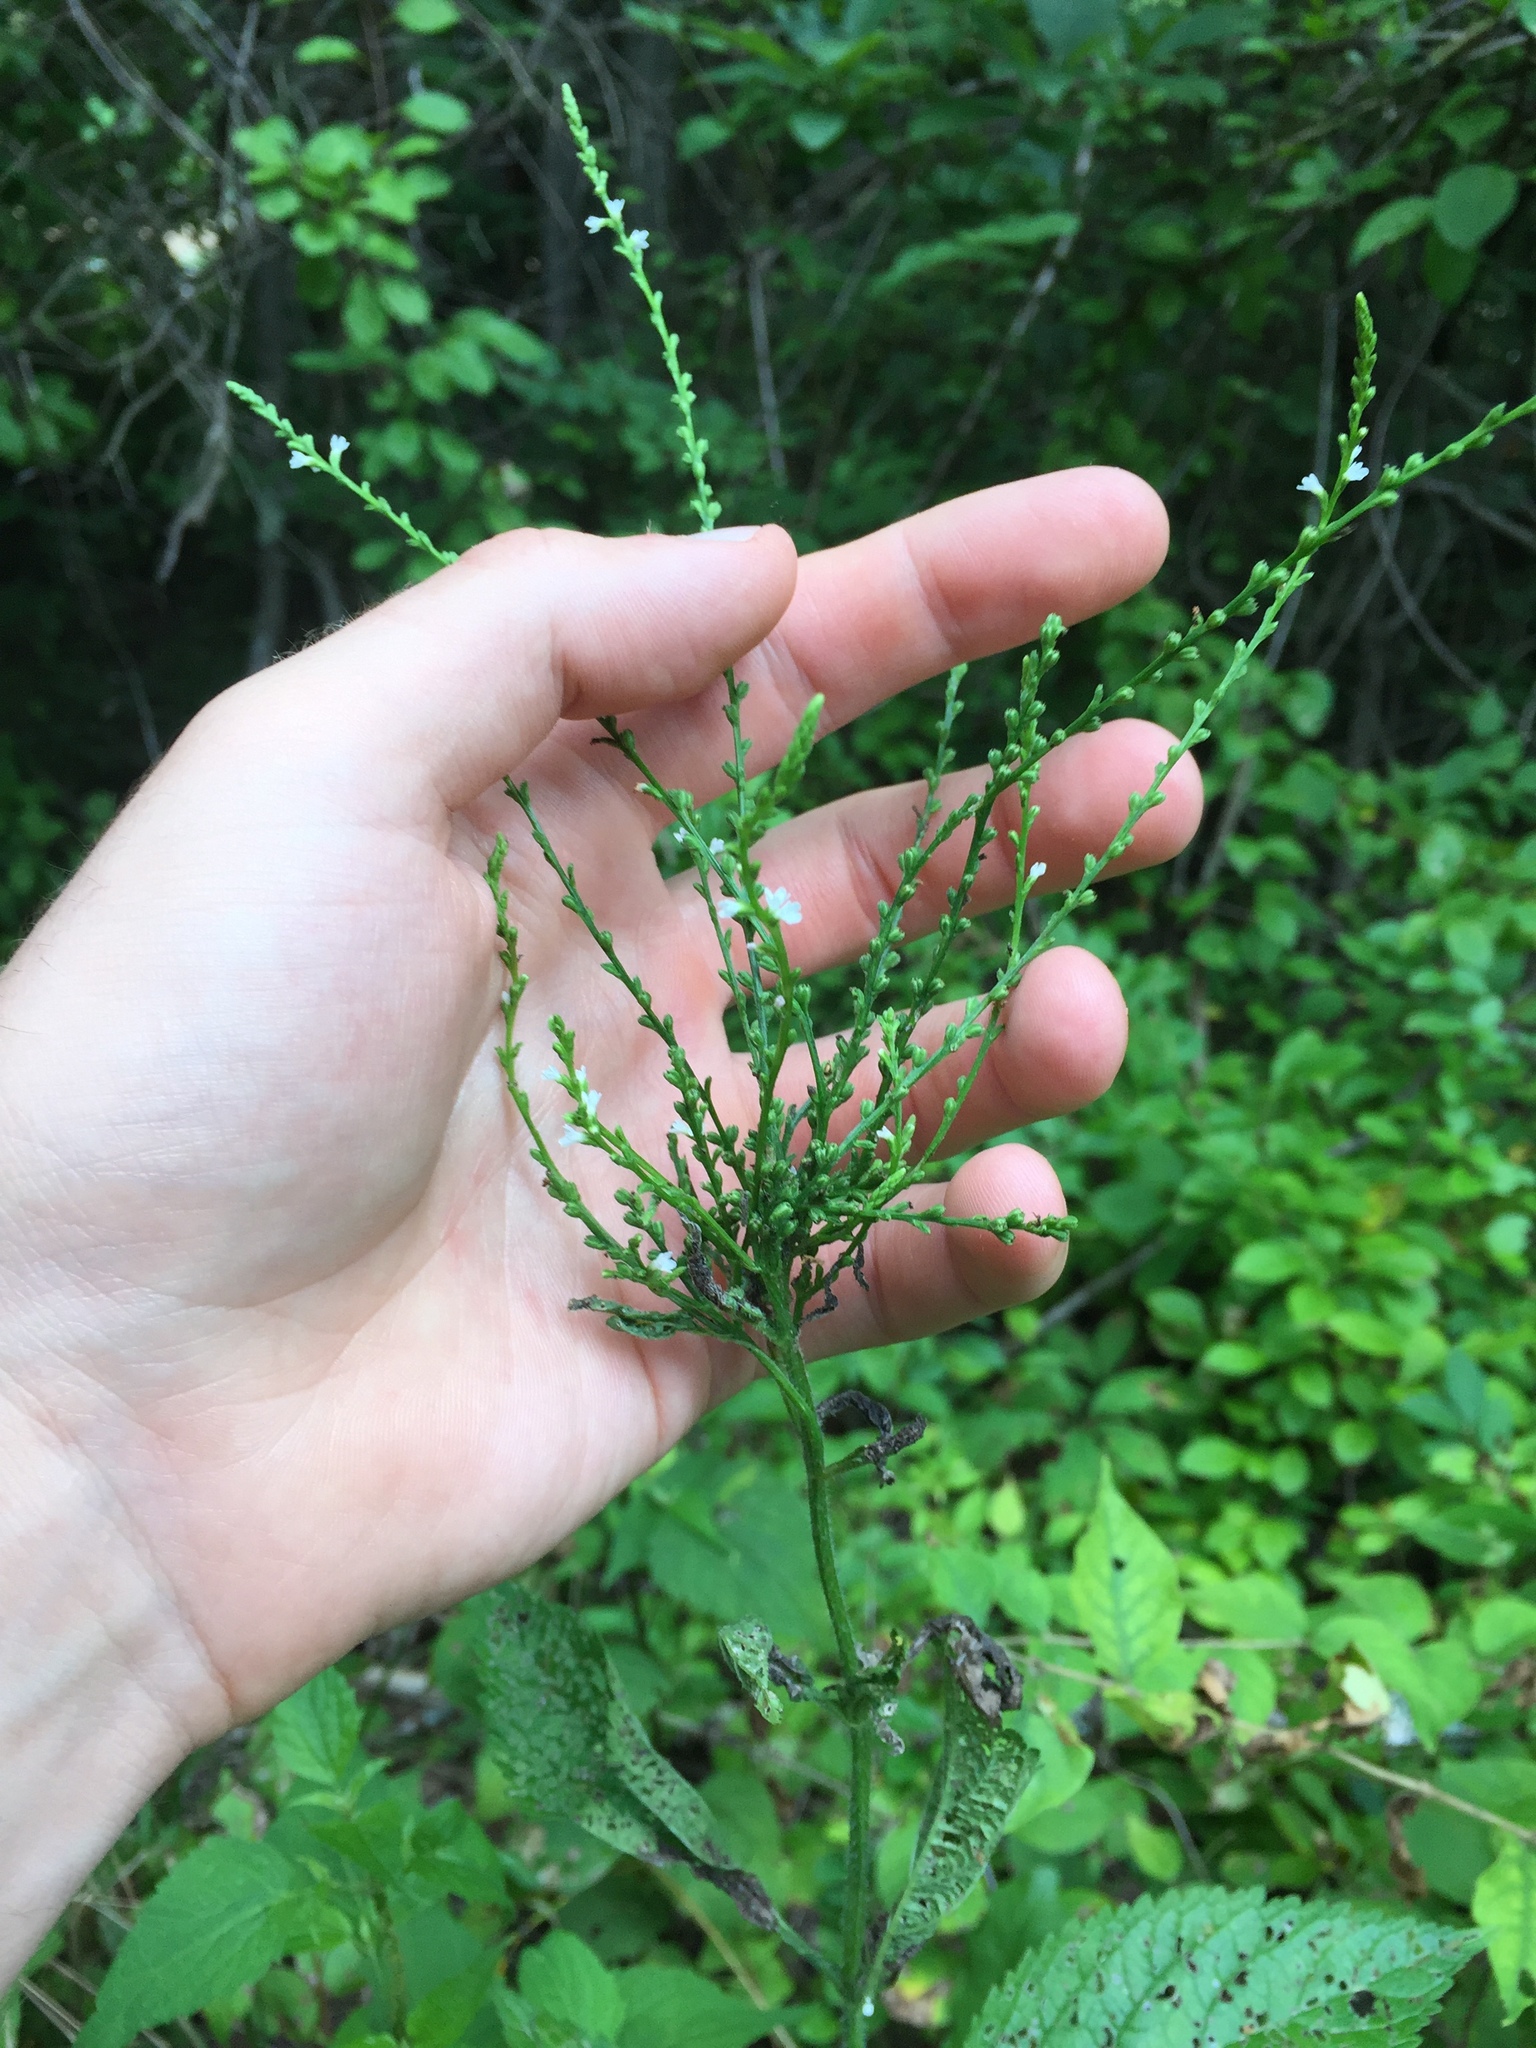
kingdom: Plantae
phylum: Tracheophyta
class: Magnoliopsida
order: Lamiales
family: Verbenaceae
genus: Verbena
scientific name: Verbena urticifolia
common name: Nettle-leaved vervain
